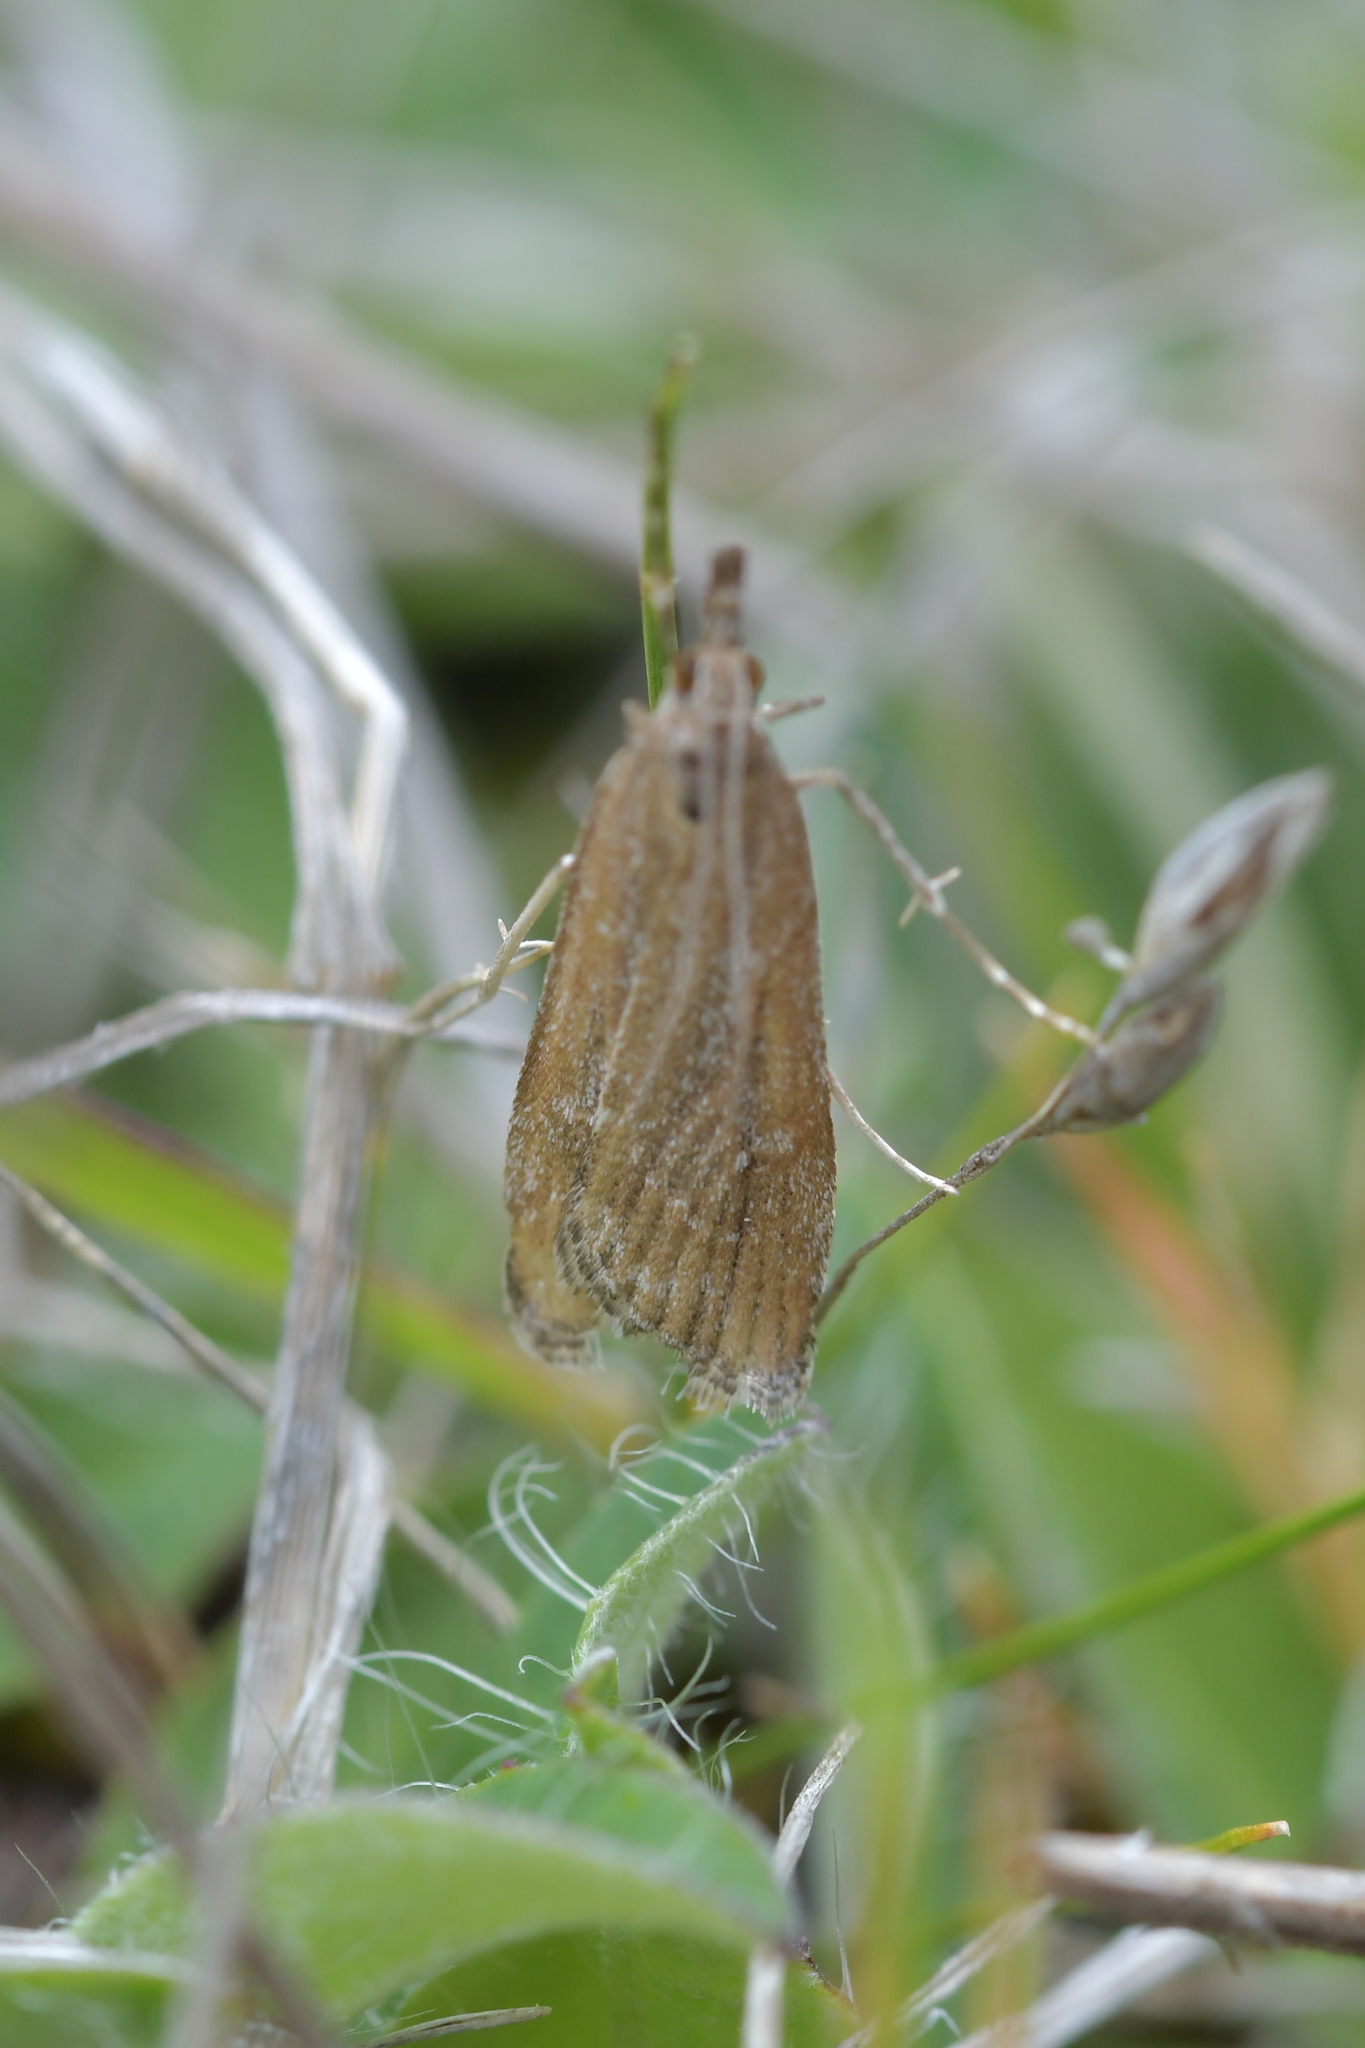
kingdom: Animalia
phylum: Arthropoda
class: Insecta
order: Lepidoptera
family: Crambidae
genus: Eudonia
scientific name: Eudonia chalara
